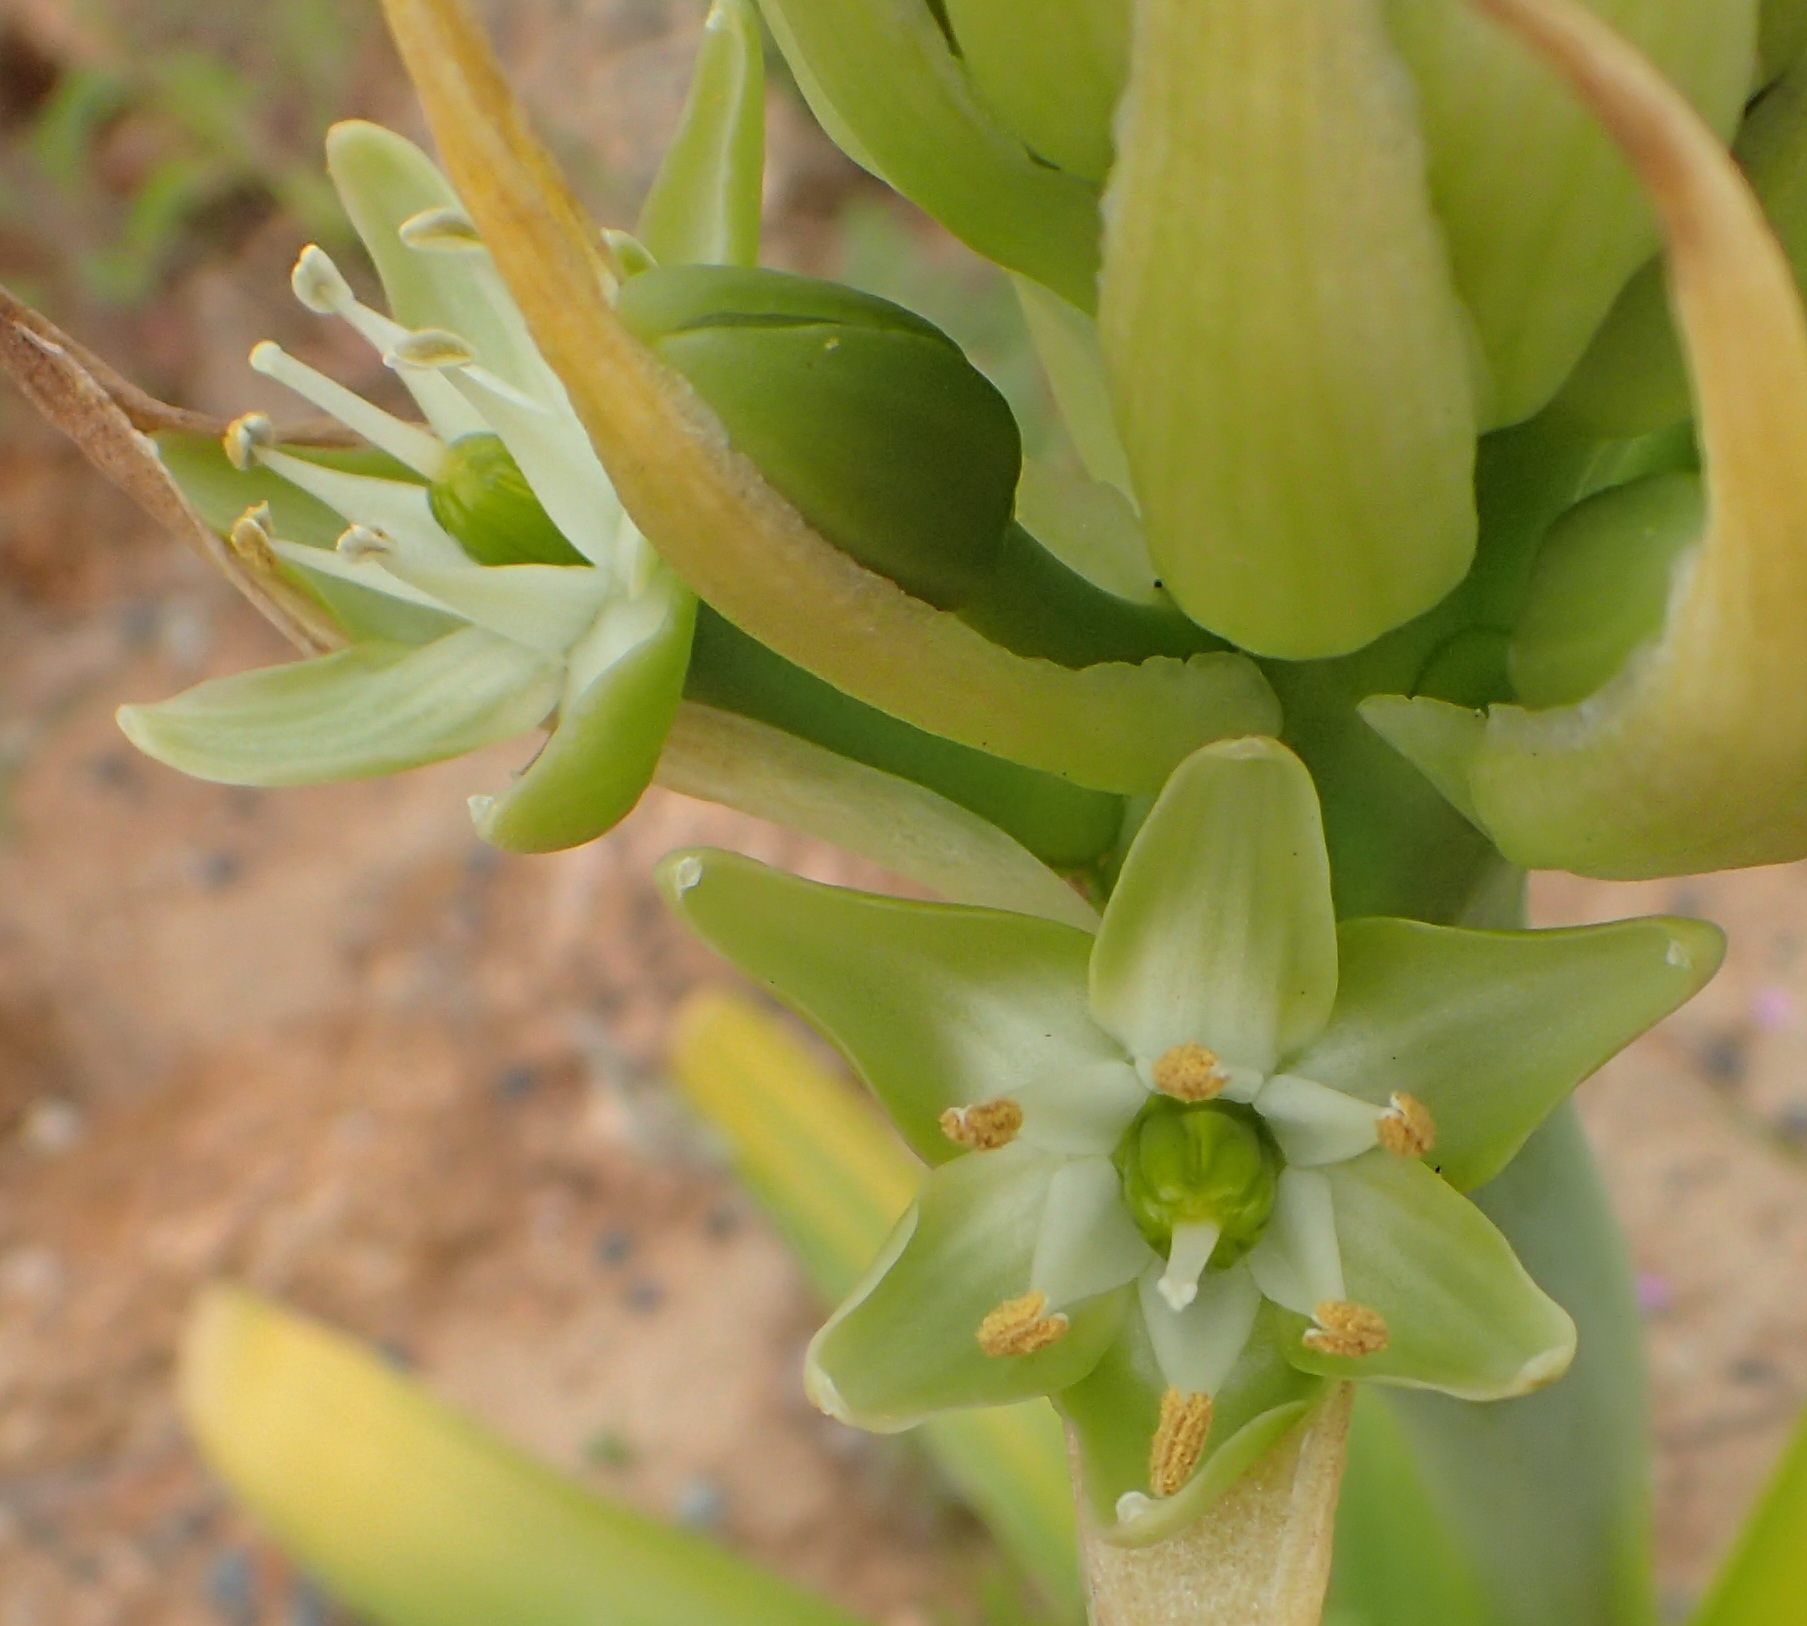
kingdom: Plantae
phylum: Tracheophyta
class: Liliopsida
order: Asparagales
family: Asparagaceae
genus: Ornithogalum
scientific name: Ornithogalum xanthochlorum
